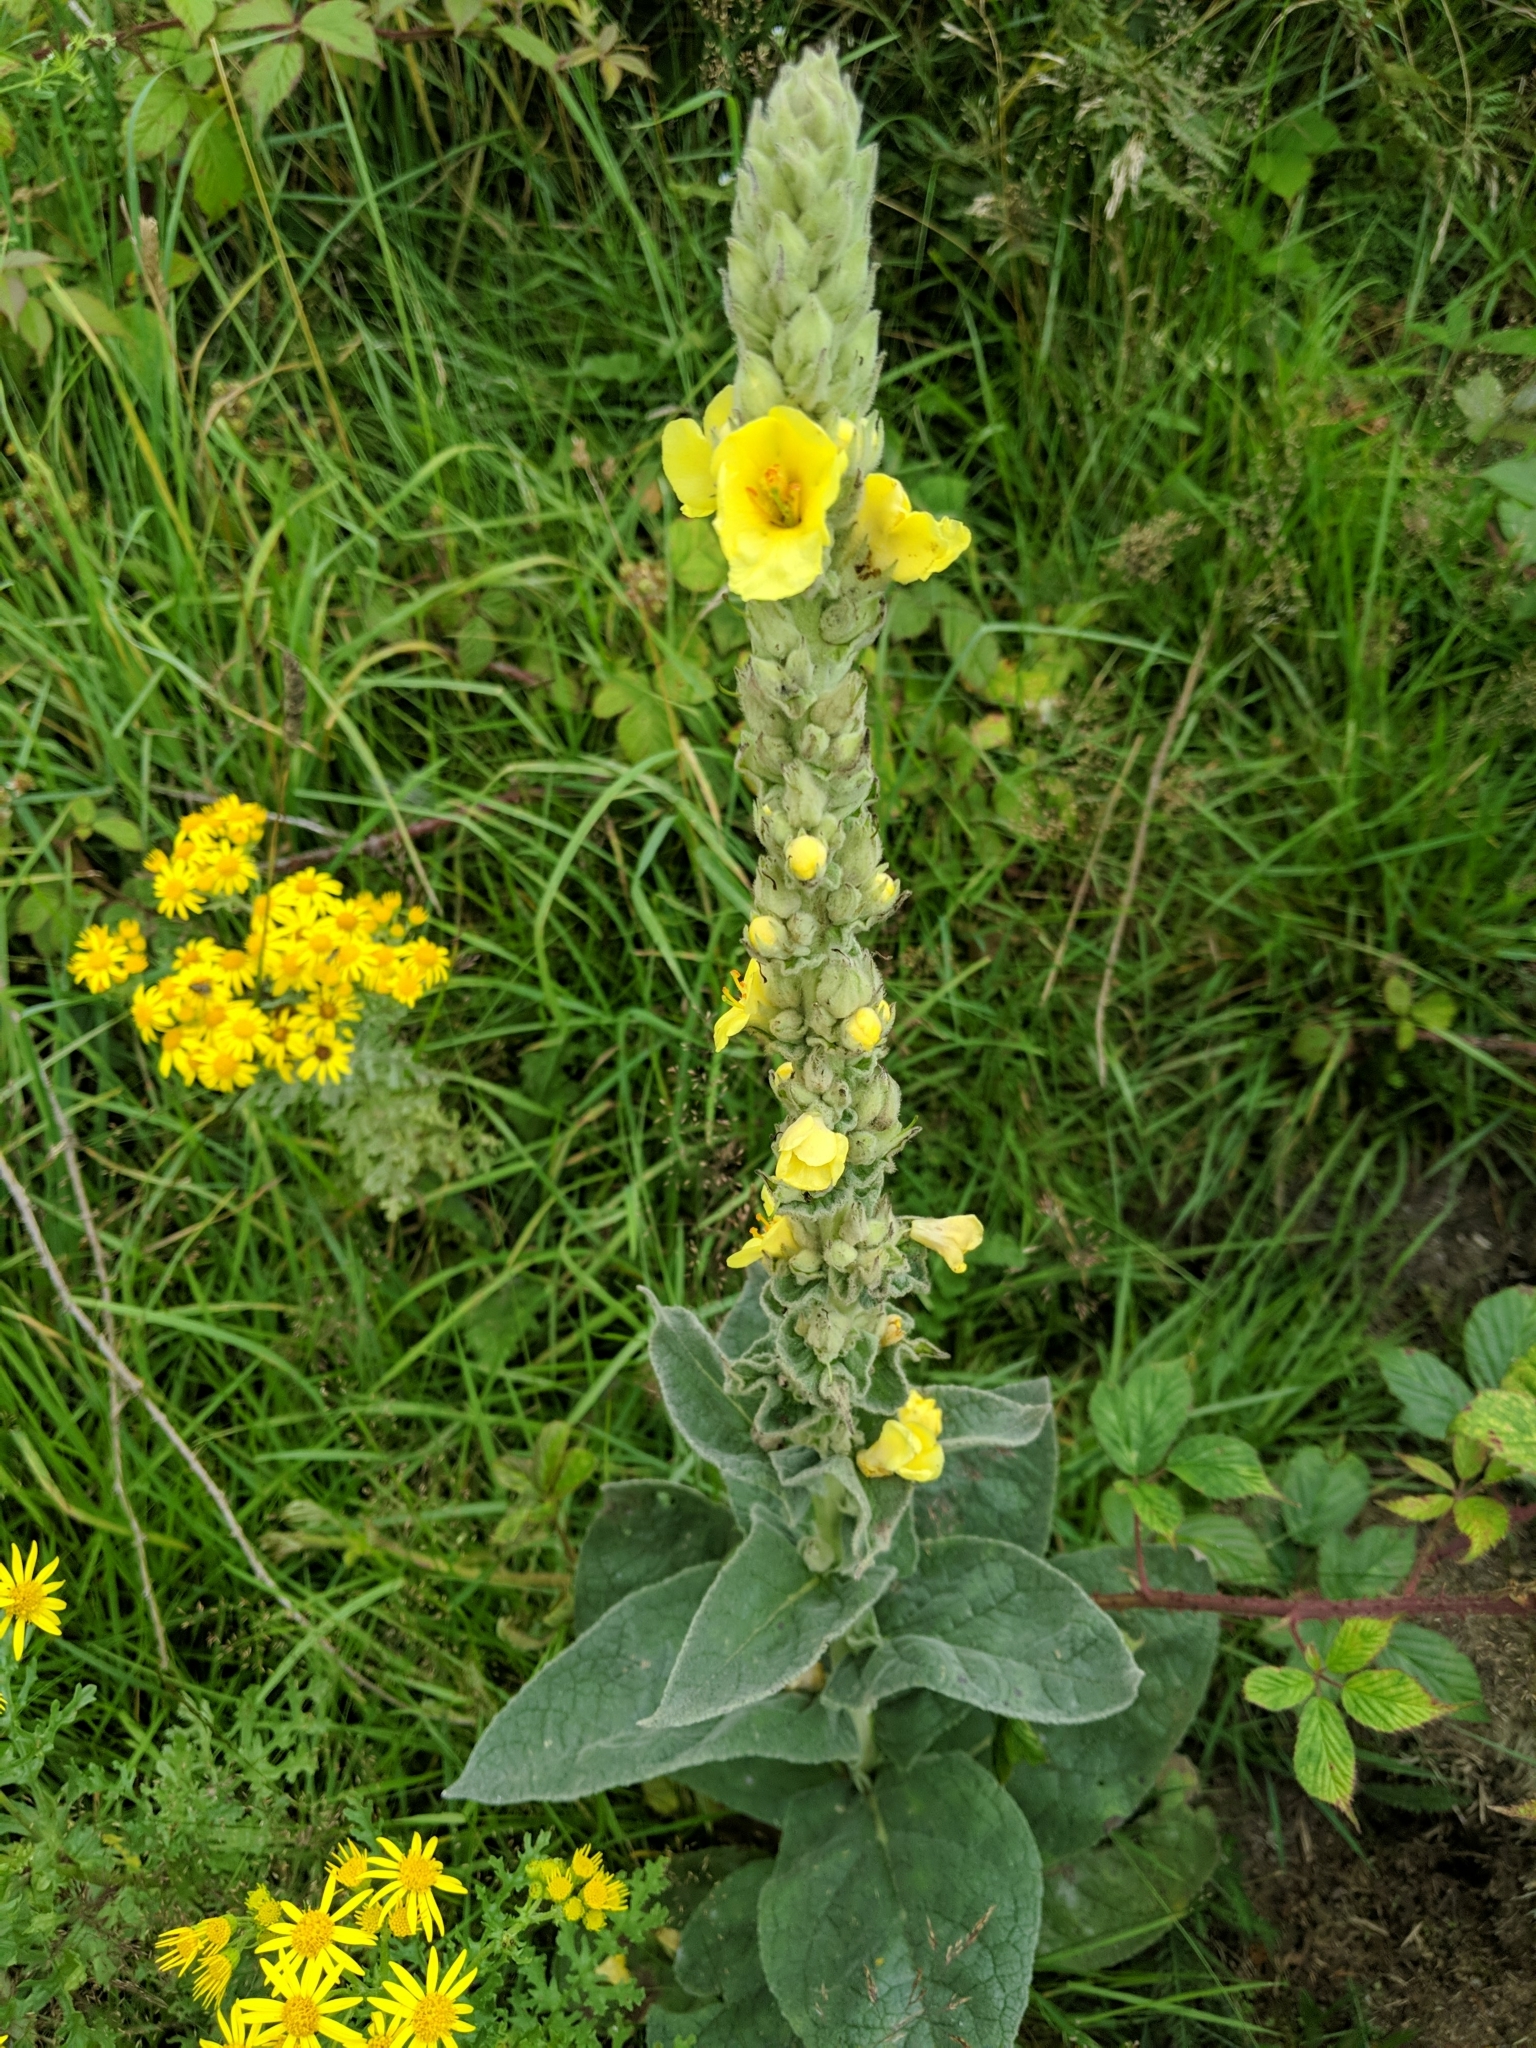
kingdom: Plantae
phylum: Tracheophyta
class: Magnoliopsida
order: Lamiales
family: Scrophulariaceae
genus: Verbascum
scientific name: Verbascum thapsus
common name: Common mullein
